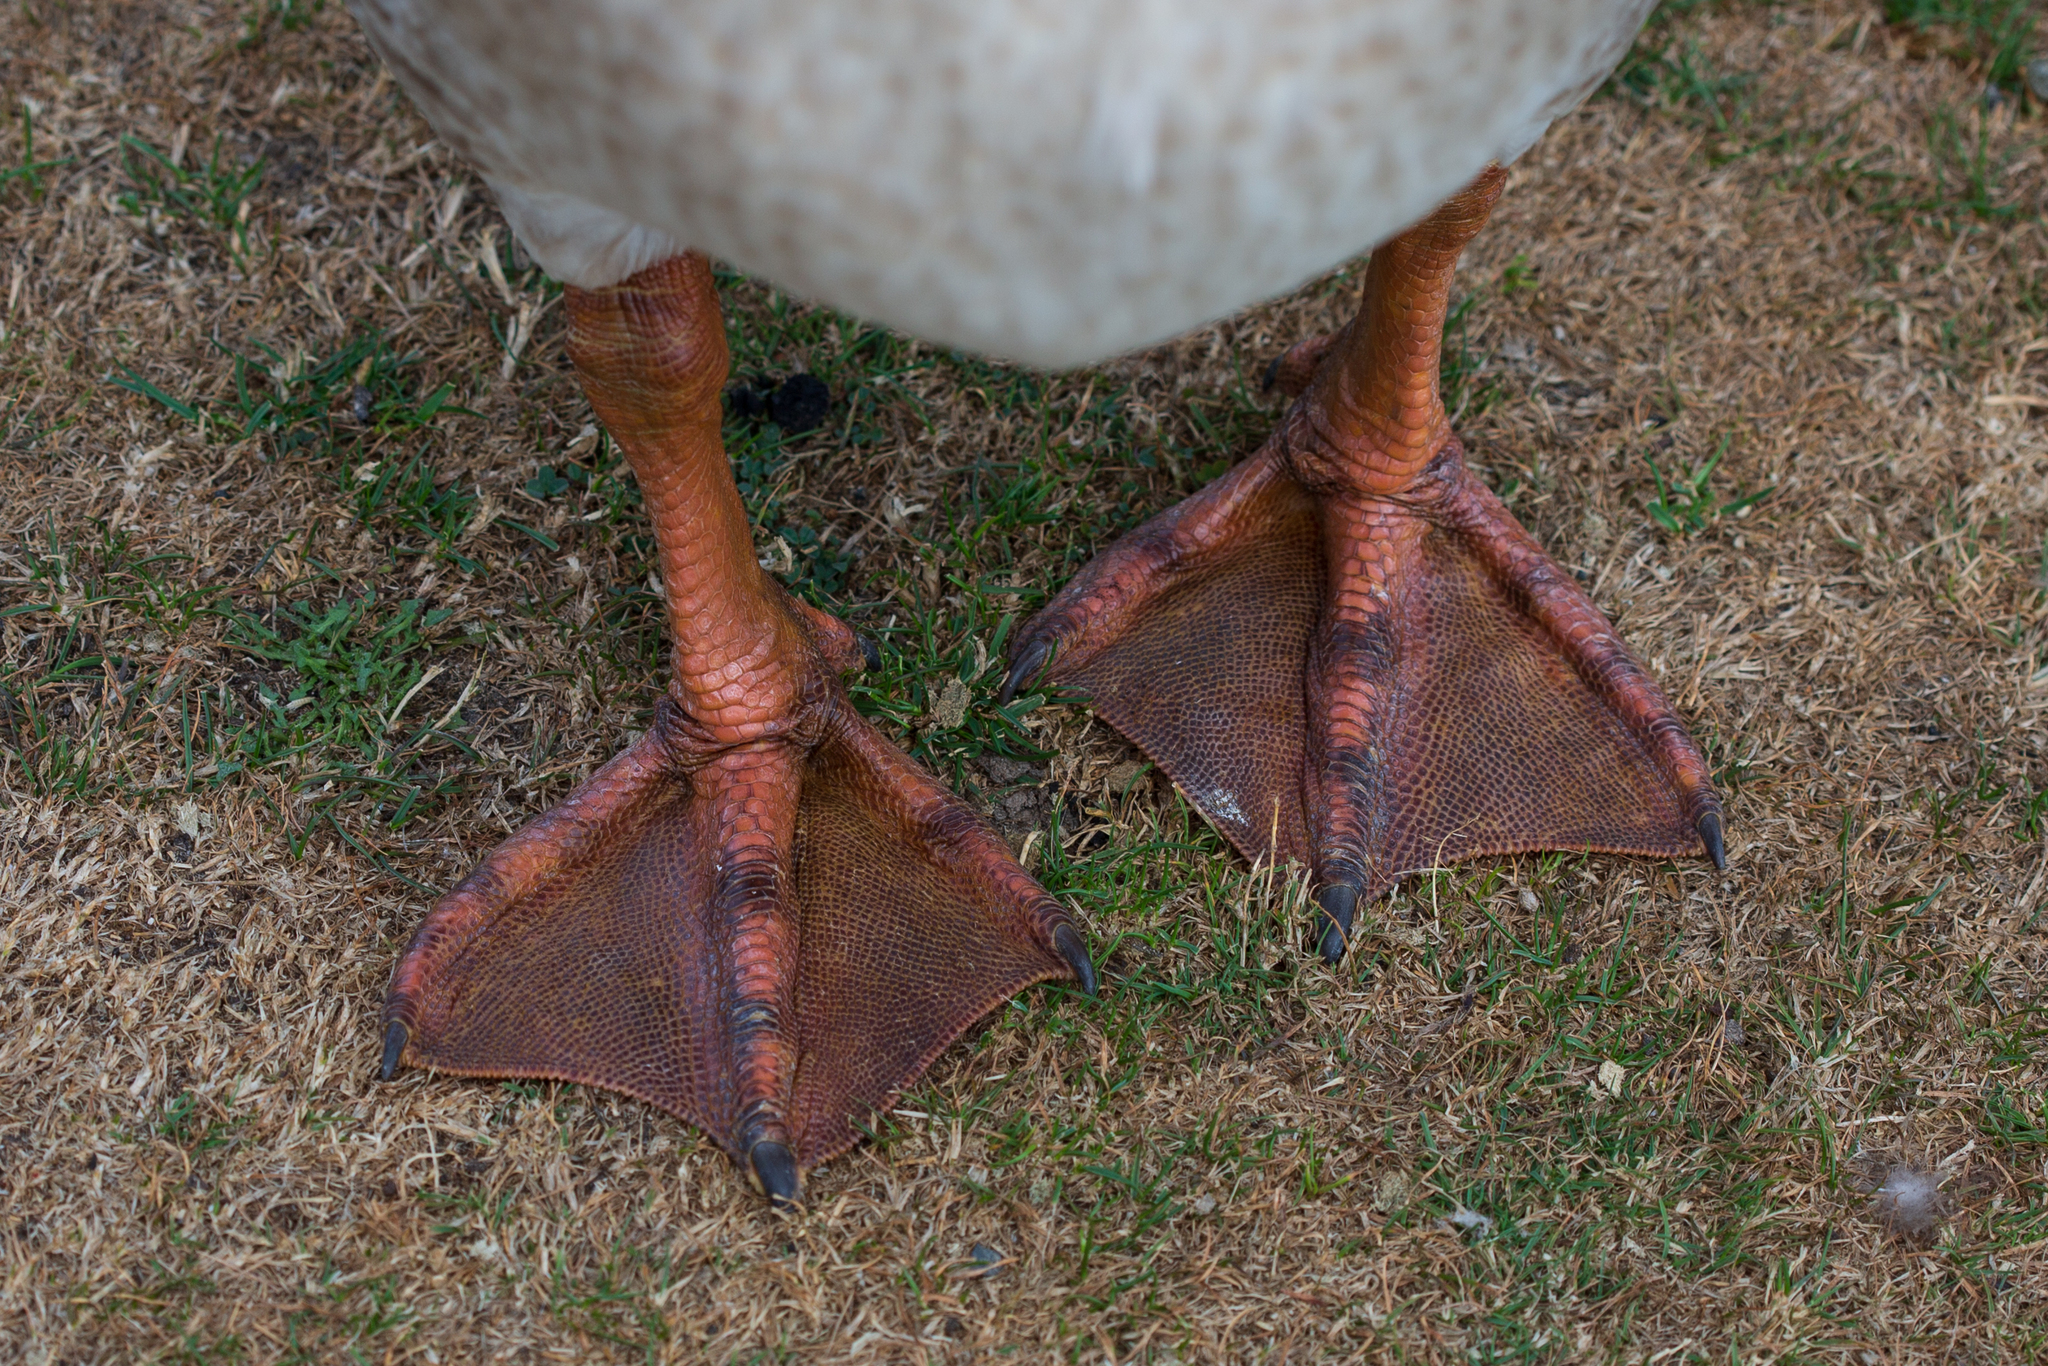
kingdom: Animalia
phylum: Chordata
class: Aves
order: Anseriformes
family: Anatidae
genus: Anser
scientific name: Anser cygnoides
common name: Swan goose
